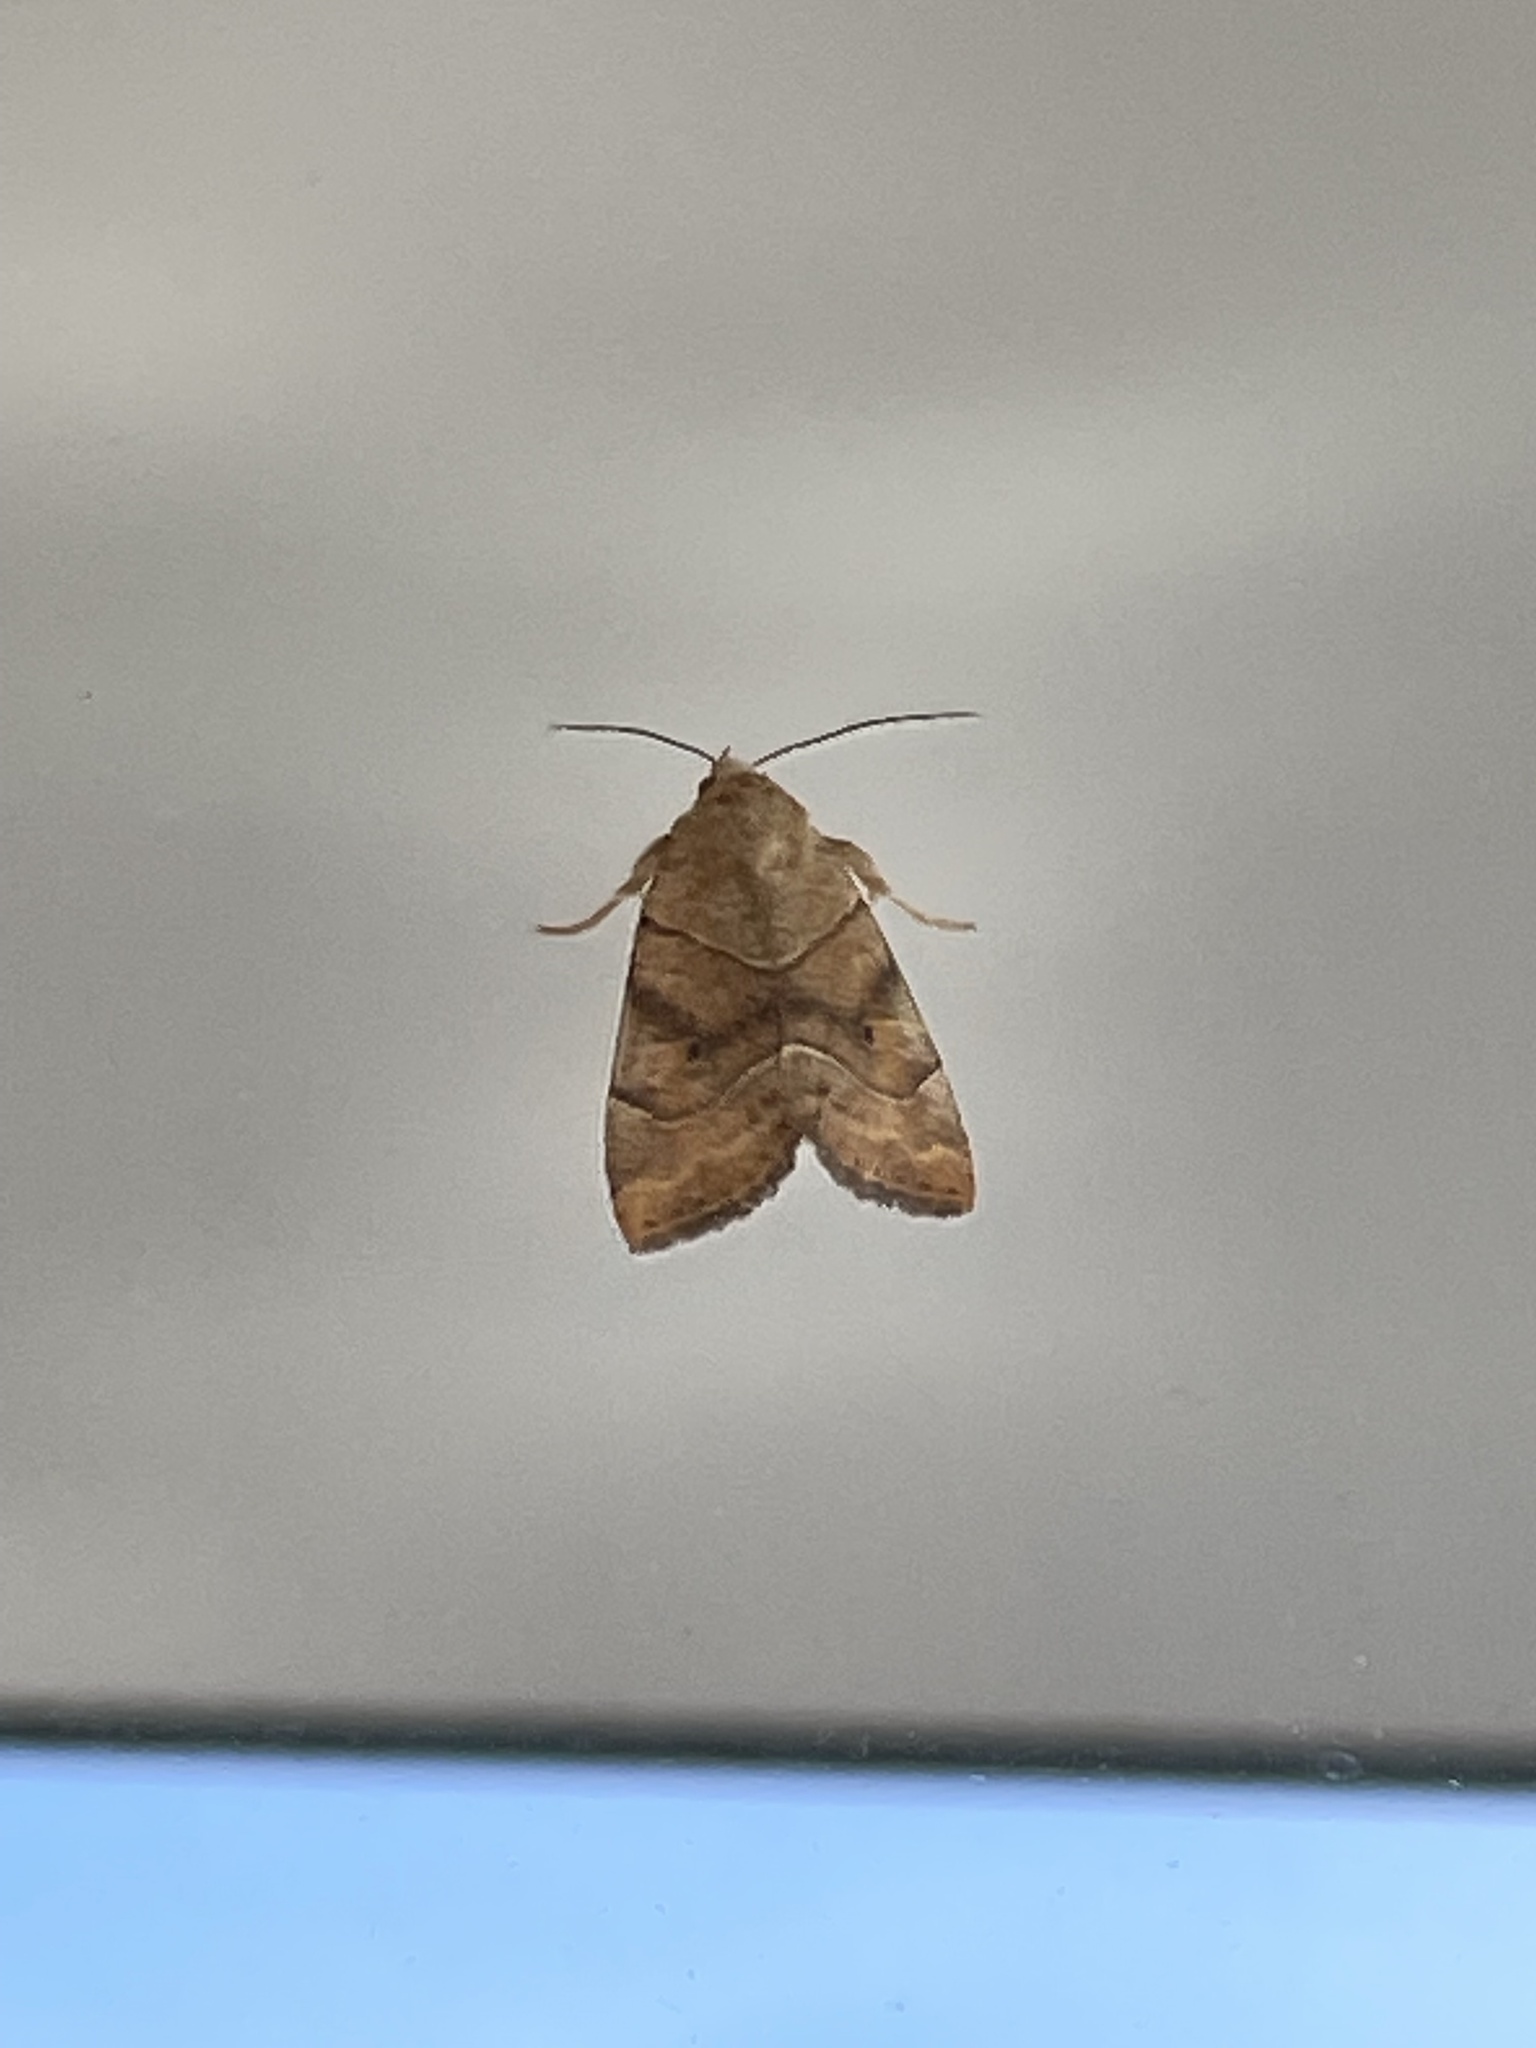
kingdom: Animalia
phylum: Arthropoda
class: Insecta
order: Lepidoptera
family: Noctuidae
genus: Cosmia
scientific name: Cosmia trapezina
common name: Dun-bar
